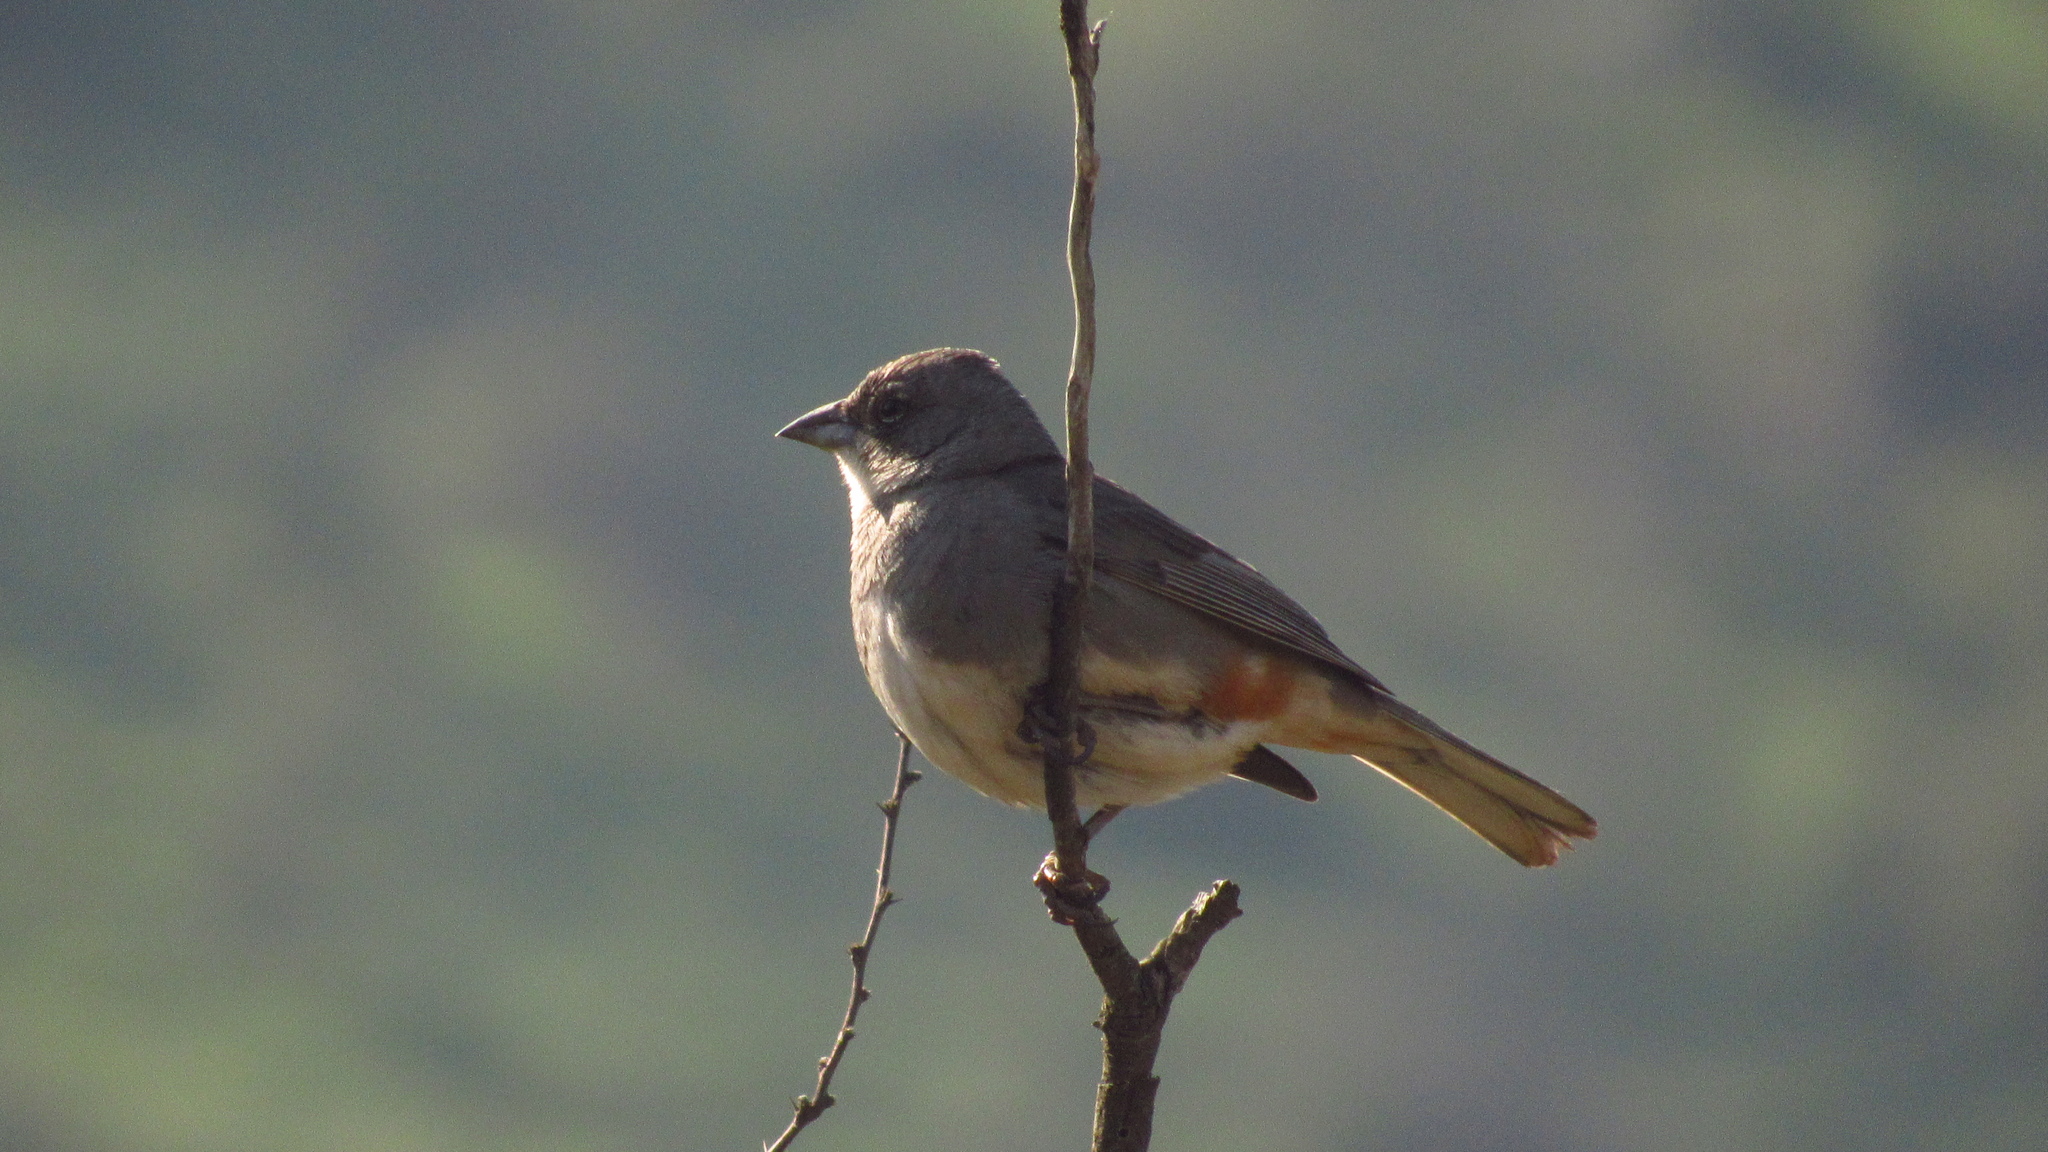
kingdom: Animalia
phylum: Chordata
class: Aves
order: Passeriformes
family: Thraupidae
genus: Diuca
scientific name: Diuca diuca
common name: Common diuca finch
